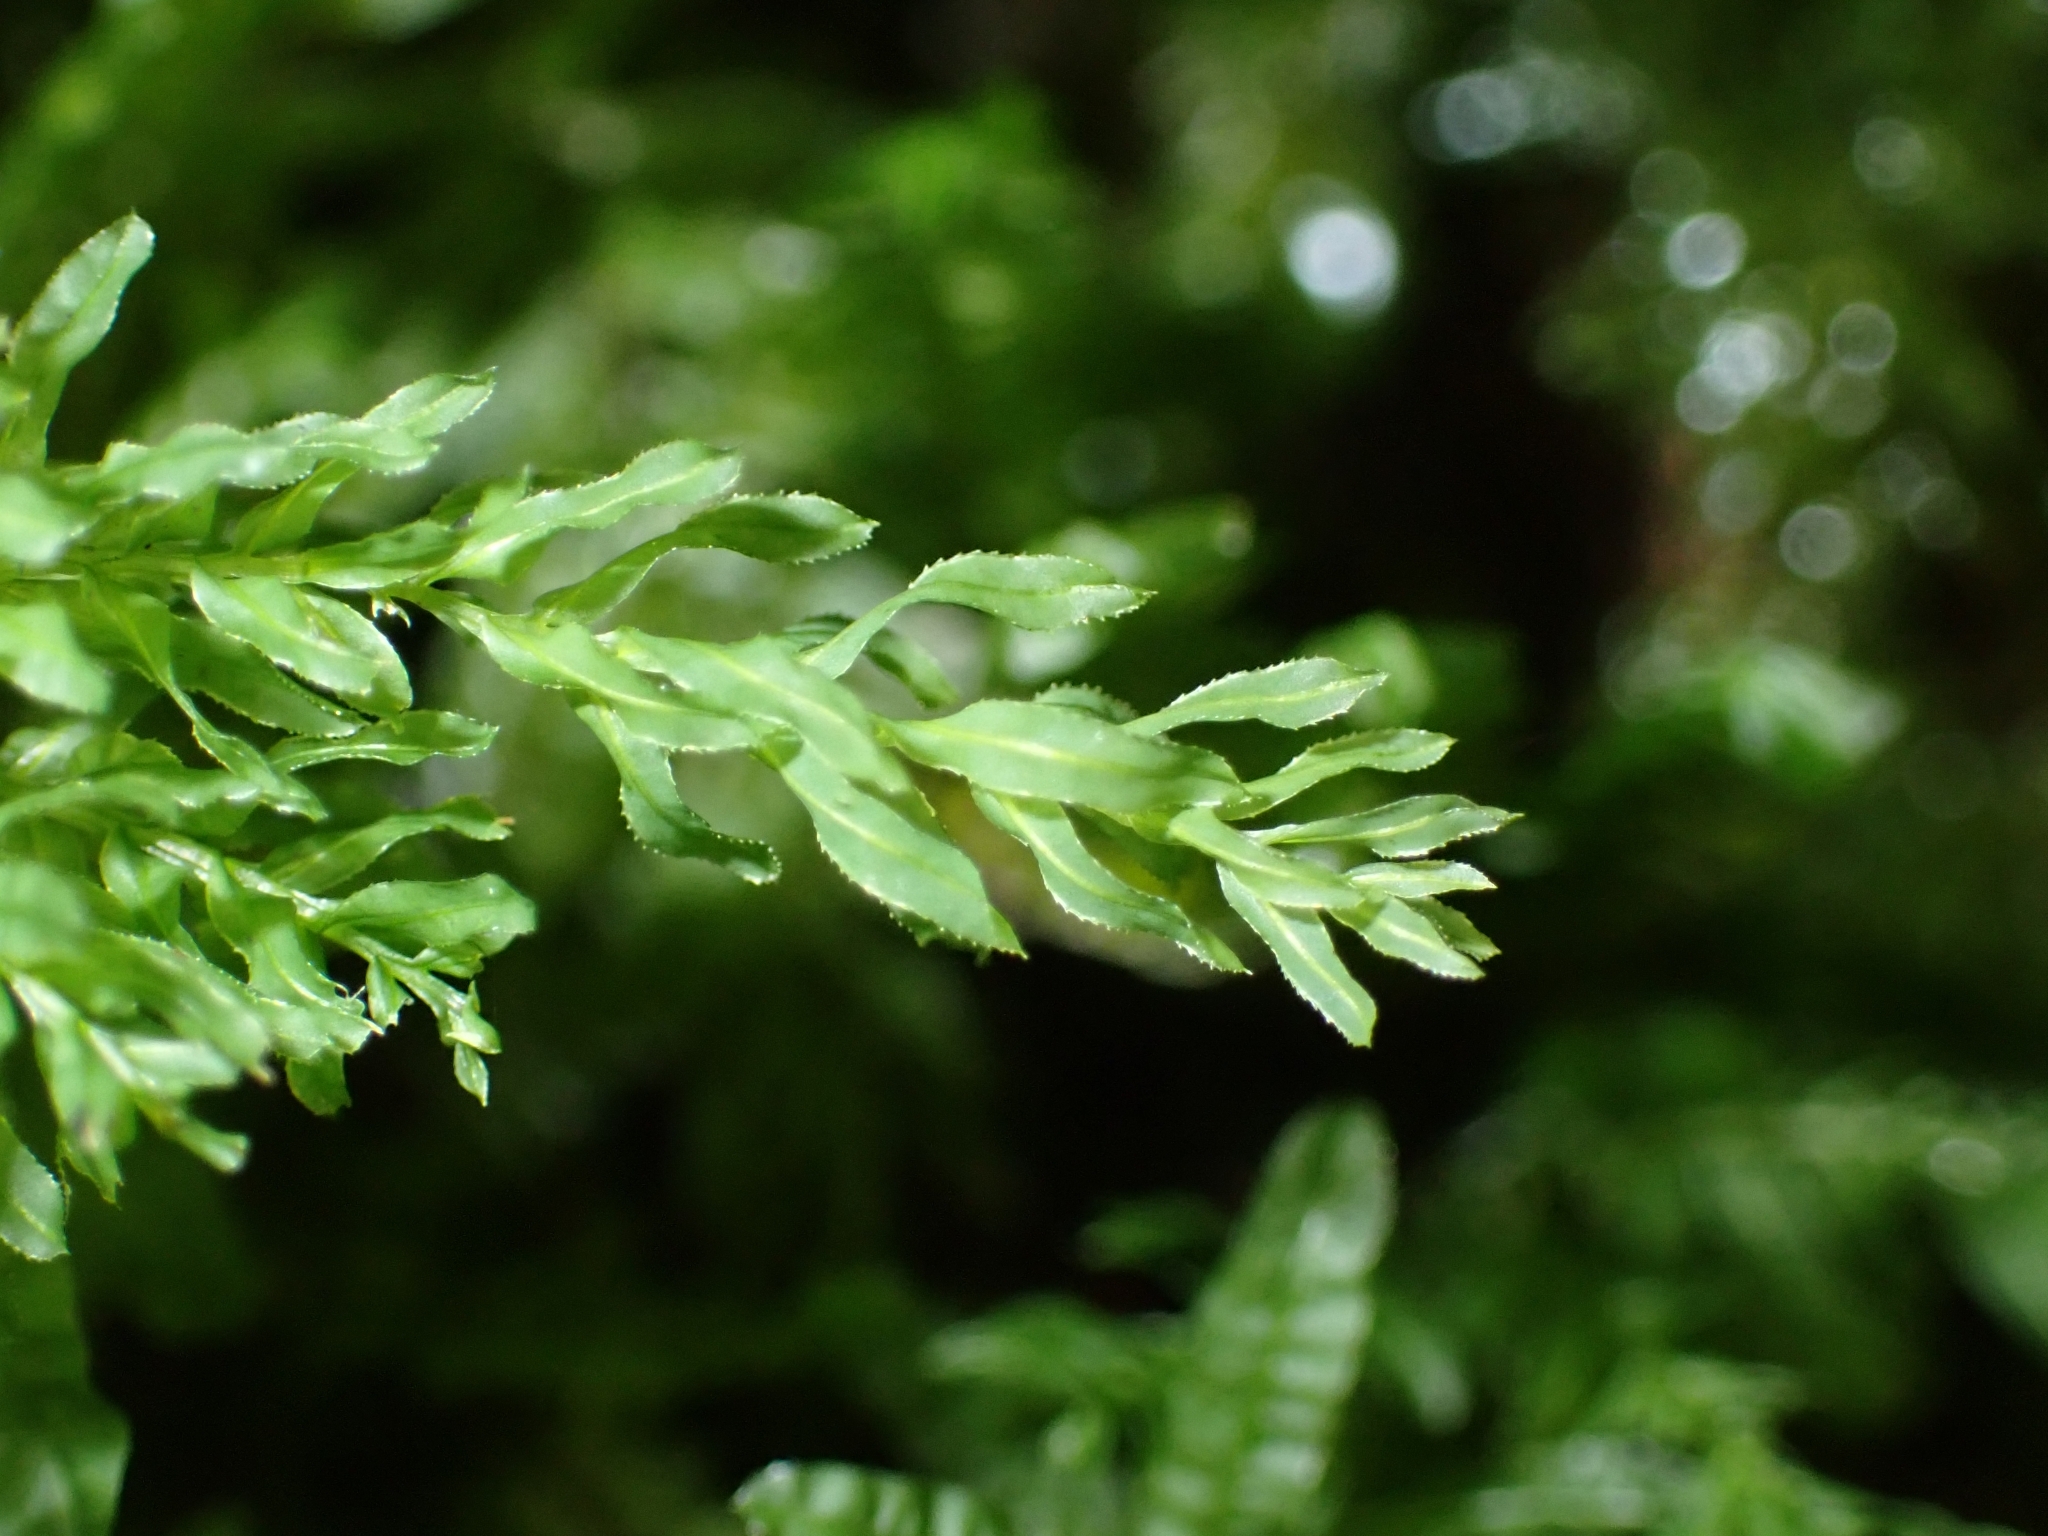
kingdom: Plantae
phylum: Bryophyta
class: Bryopsida
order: Bryales
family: Mniaceae
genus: Plagiomnium
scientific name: Plagiomnium undulatum
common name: Hart's-tongue thyme-moss
